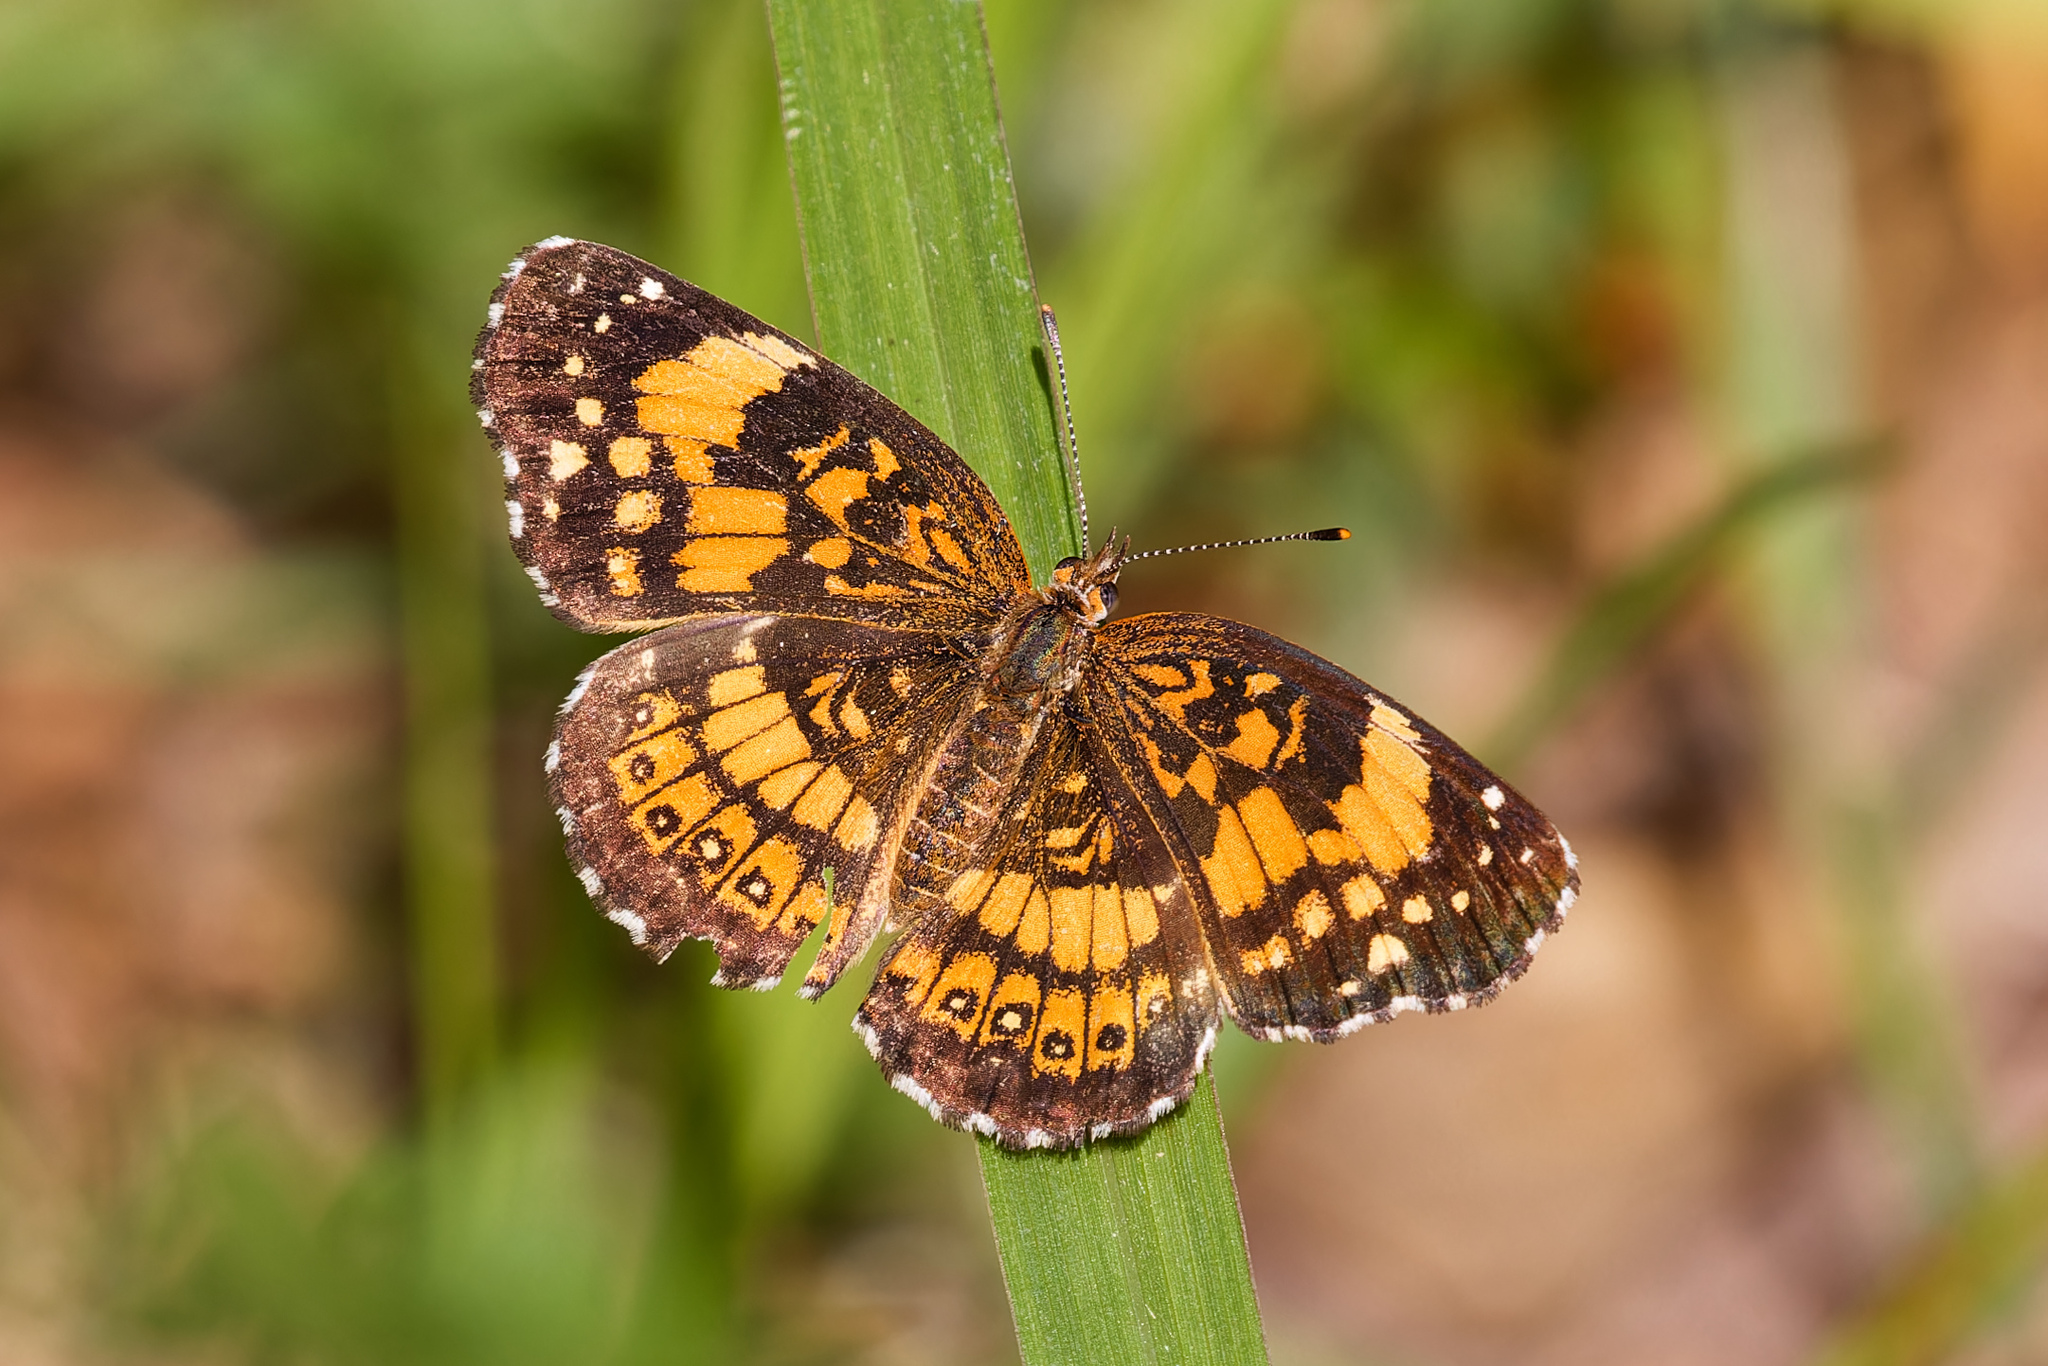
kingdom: Animalia
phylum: Arthropoda
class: Insecta
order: Lepidoptera
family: Nymphalidae
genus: Chlosyne
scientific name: Chlosyne nycteis
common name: Silvery checkerspot
